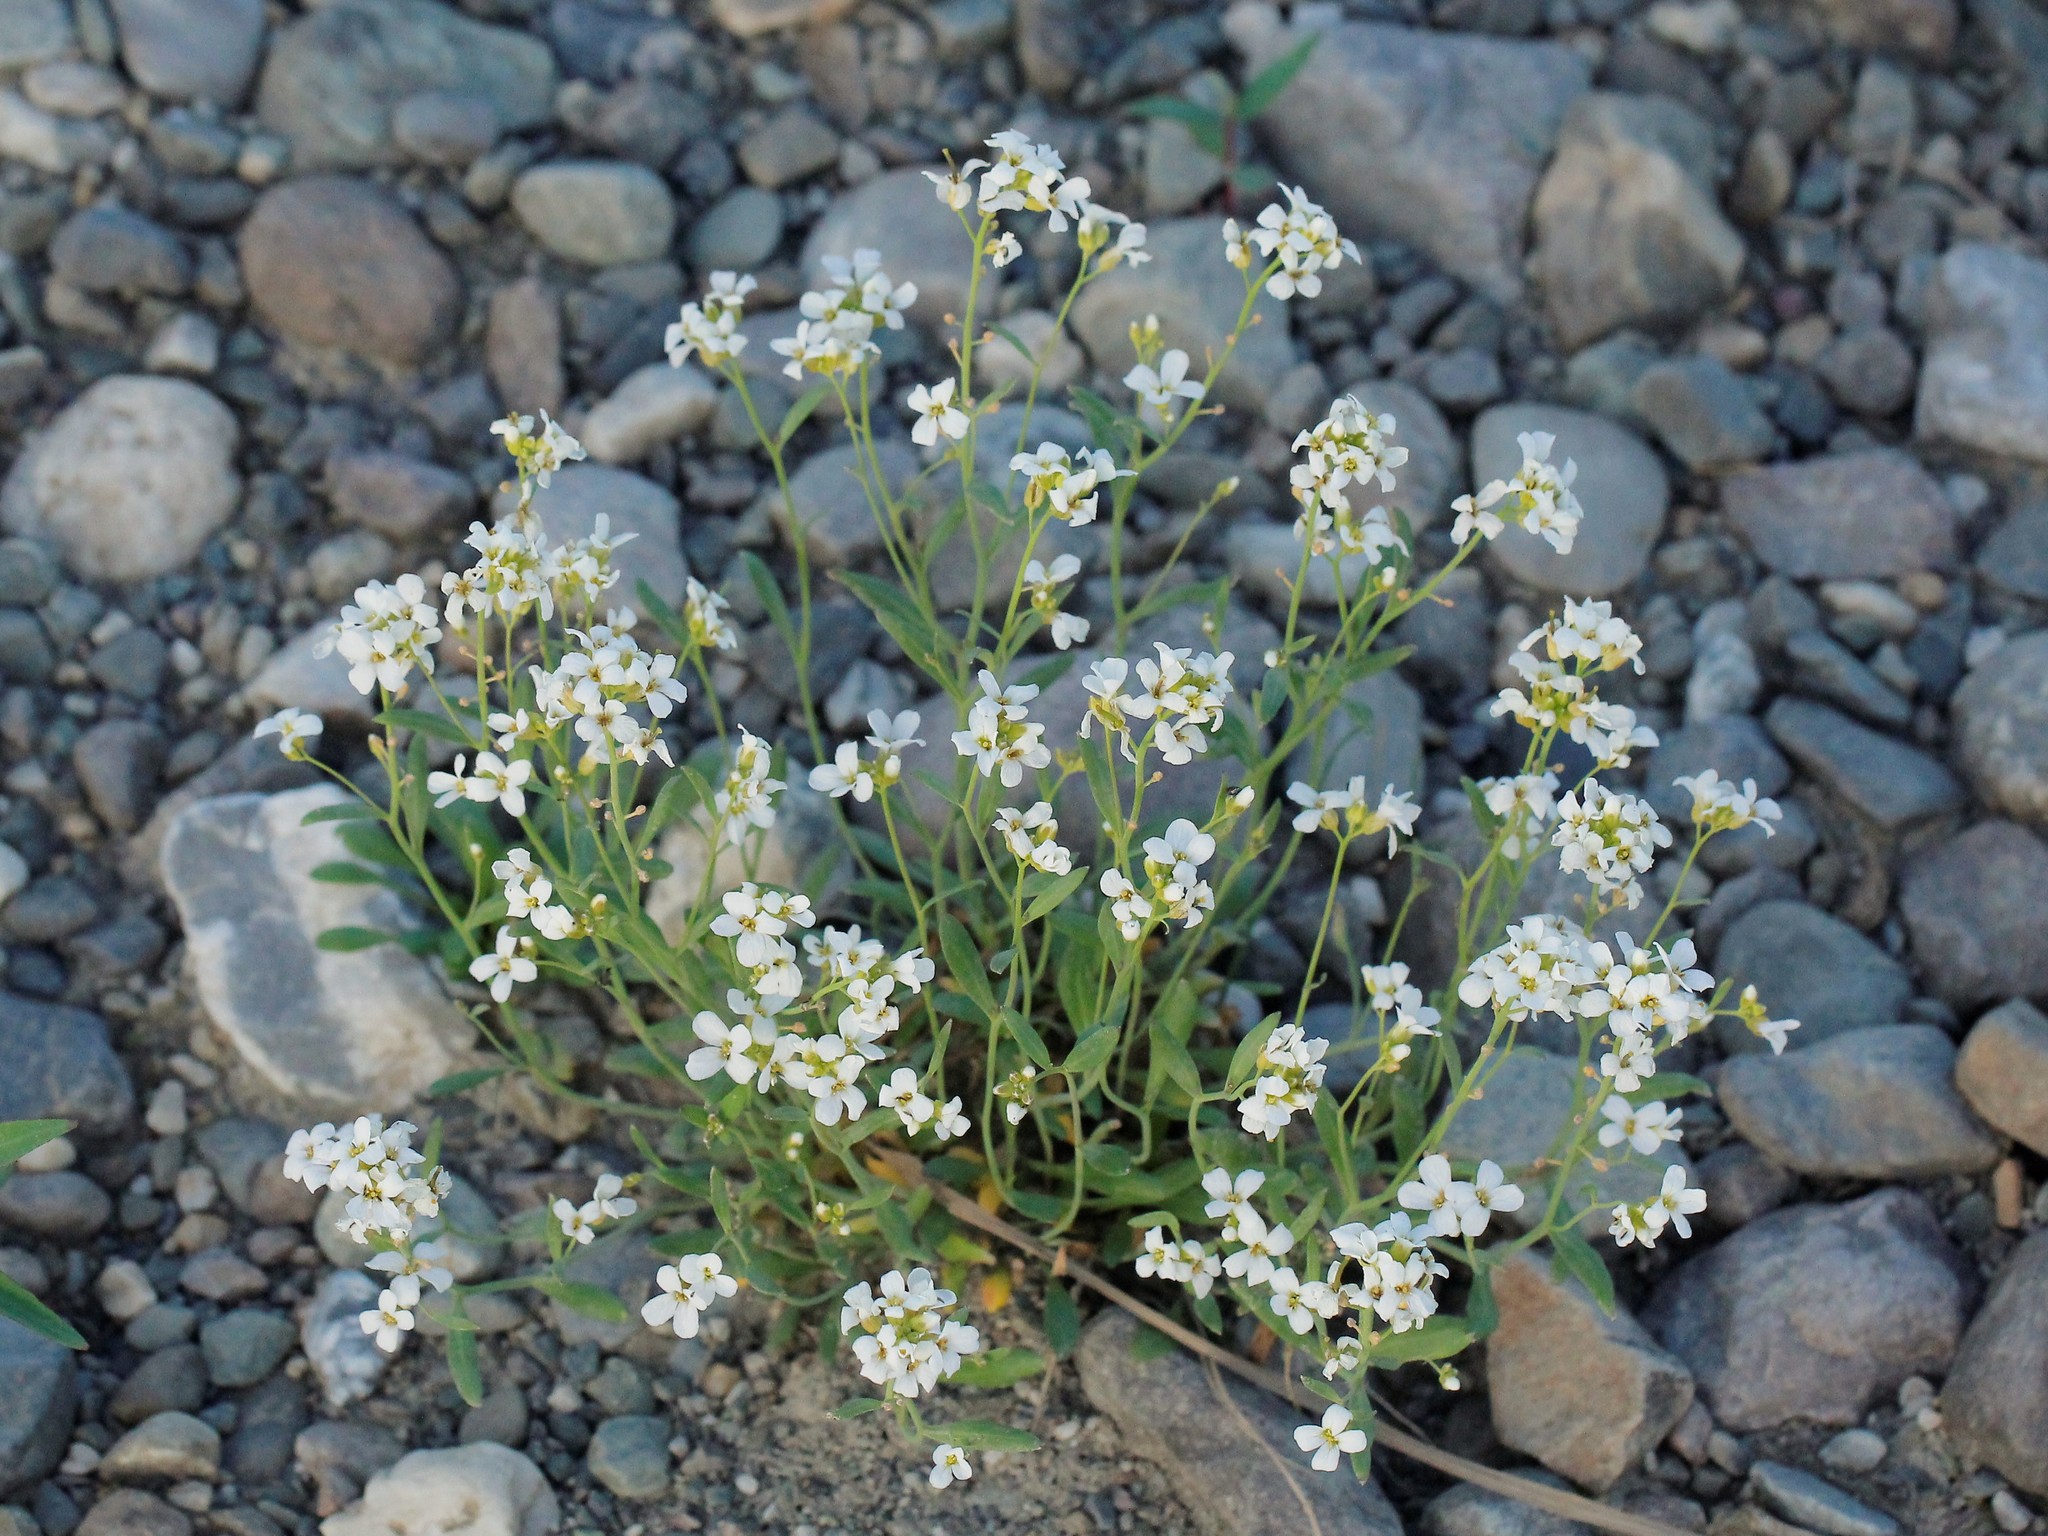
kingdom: Plantae
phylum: Tracheophyta
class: Magnoliopsida
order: Brassicales
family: Brassicaceae
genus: Arabidopsis
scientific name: Arabidopsis lyrata
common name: Lyrate rockcress
